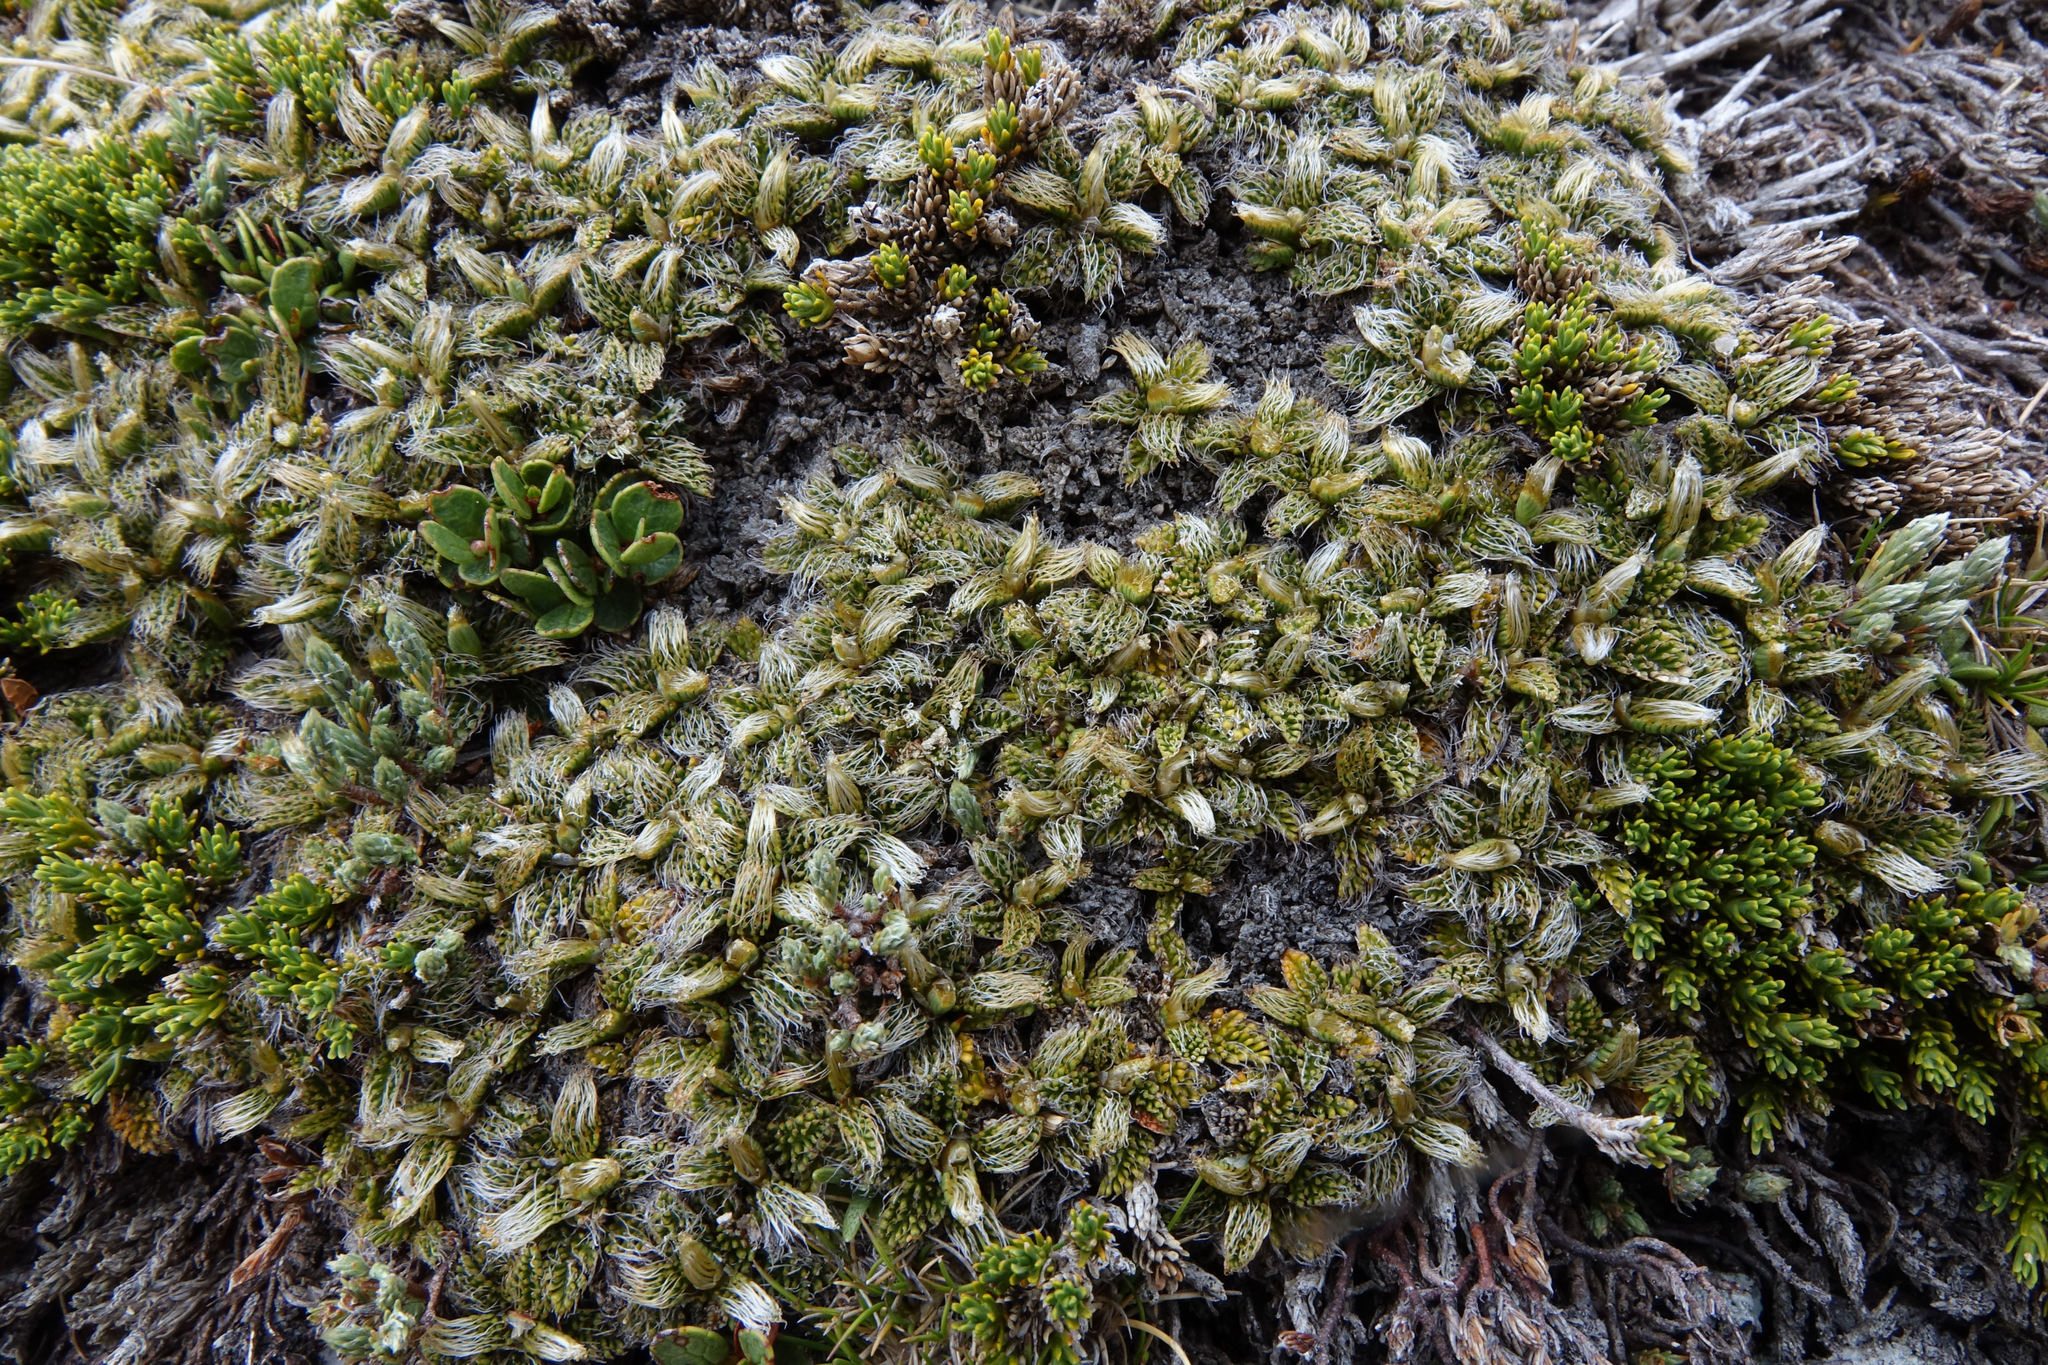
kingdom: Plantae
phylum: Tracheophyta
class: Magnoliopsida
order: Apiales
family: Apiaceae
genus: Anisotome
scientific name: Anisotome imbricata
